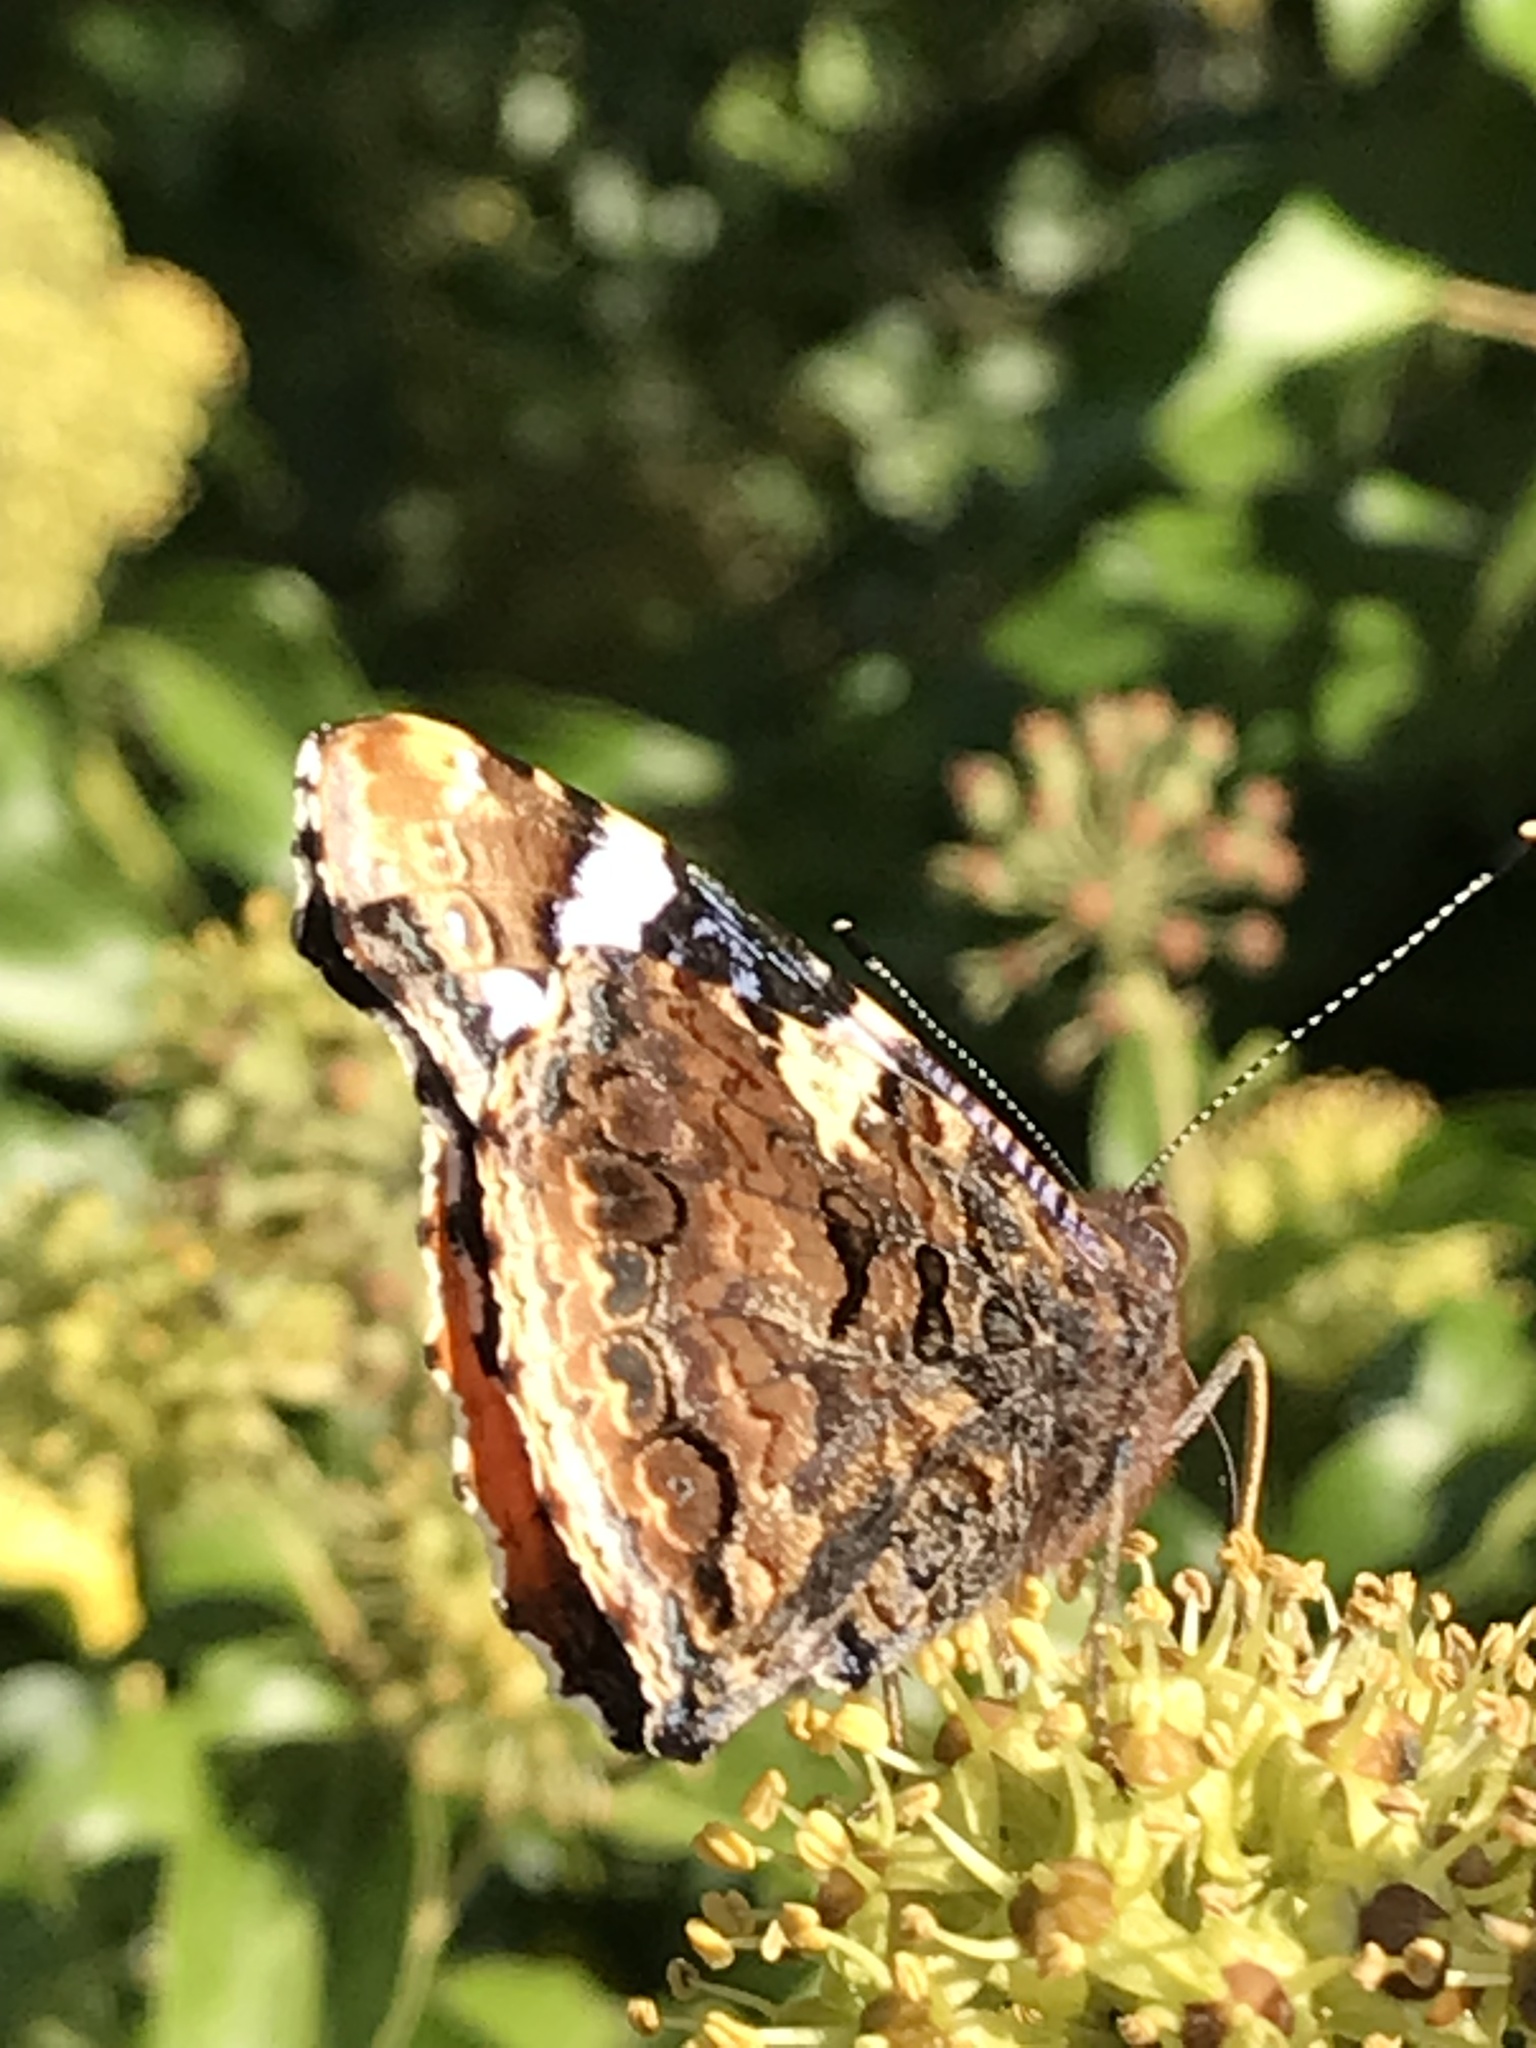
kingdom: Animalia
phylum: Arthropoda
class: Insecta
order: Lepidoptera
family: Nymphalidae
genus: Vanessa
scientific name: Vanessa atalanta
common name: Red admiral
